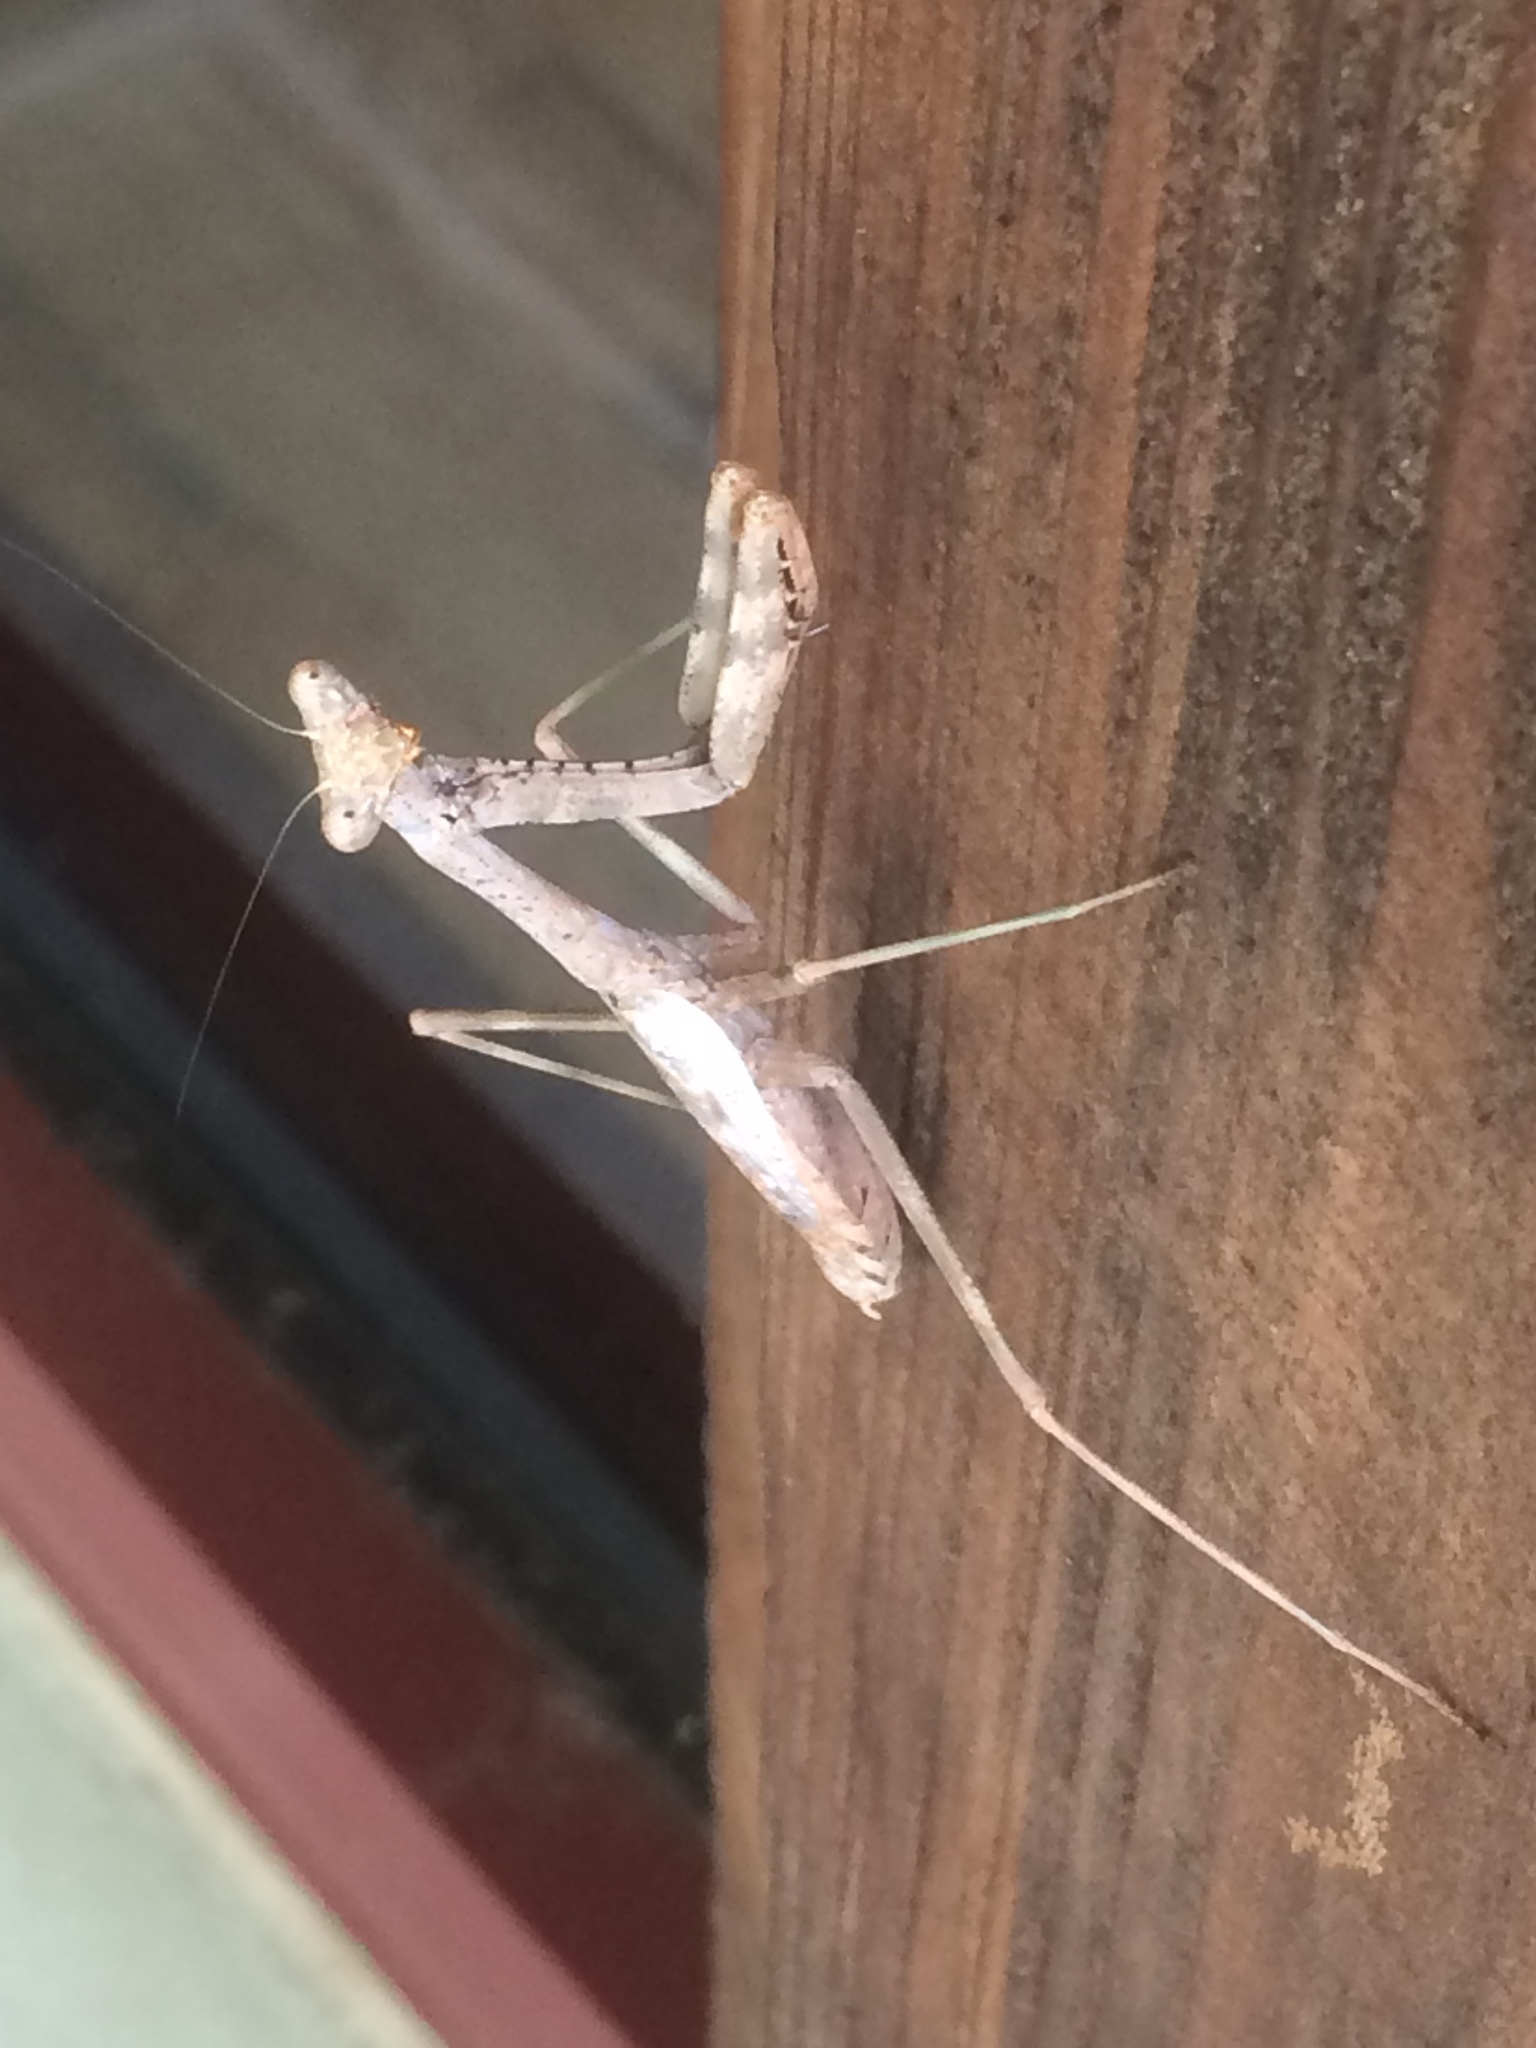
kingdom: Animalia
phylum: Arthropoda
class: Insecta
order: Mantodea
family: Mantidae
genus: Stagmomantis
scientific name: Stagmomantis carolina
